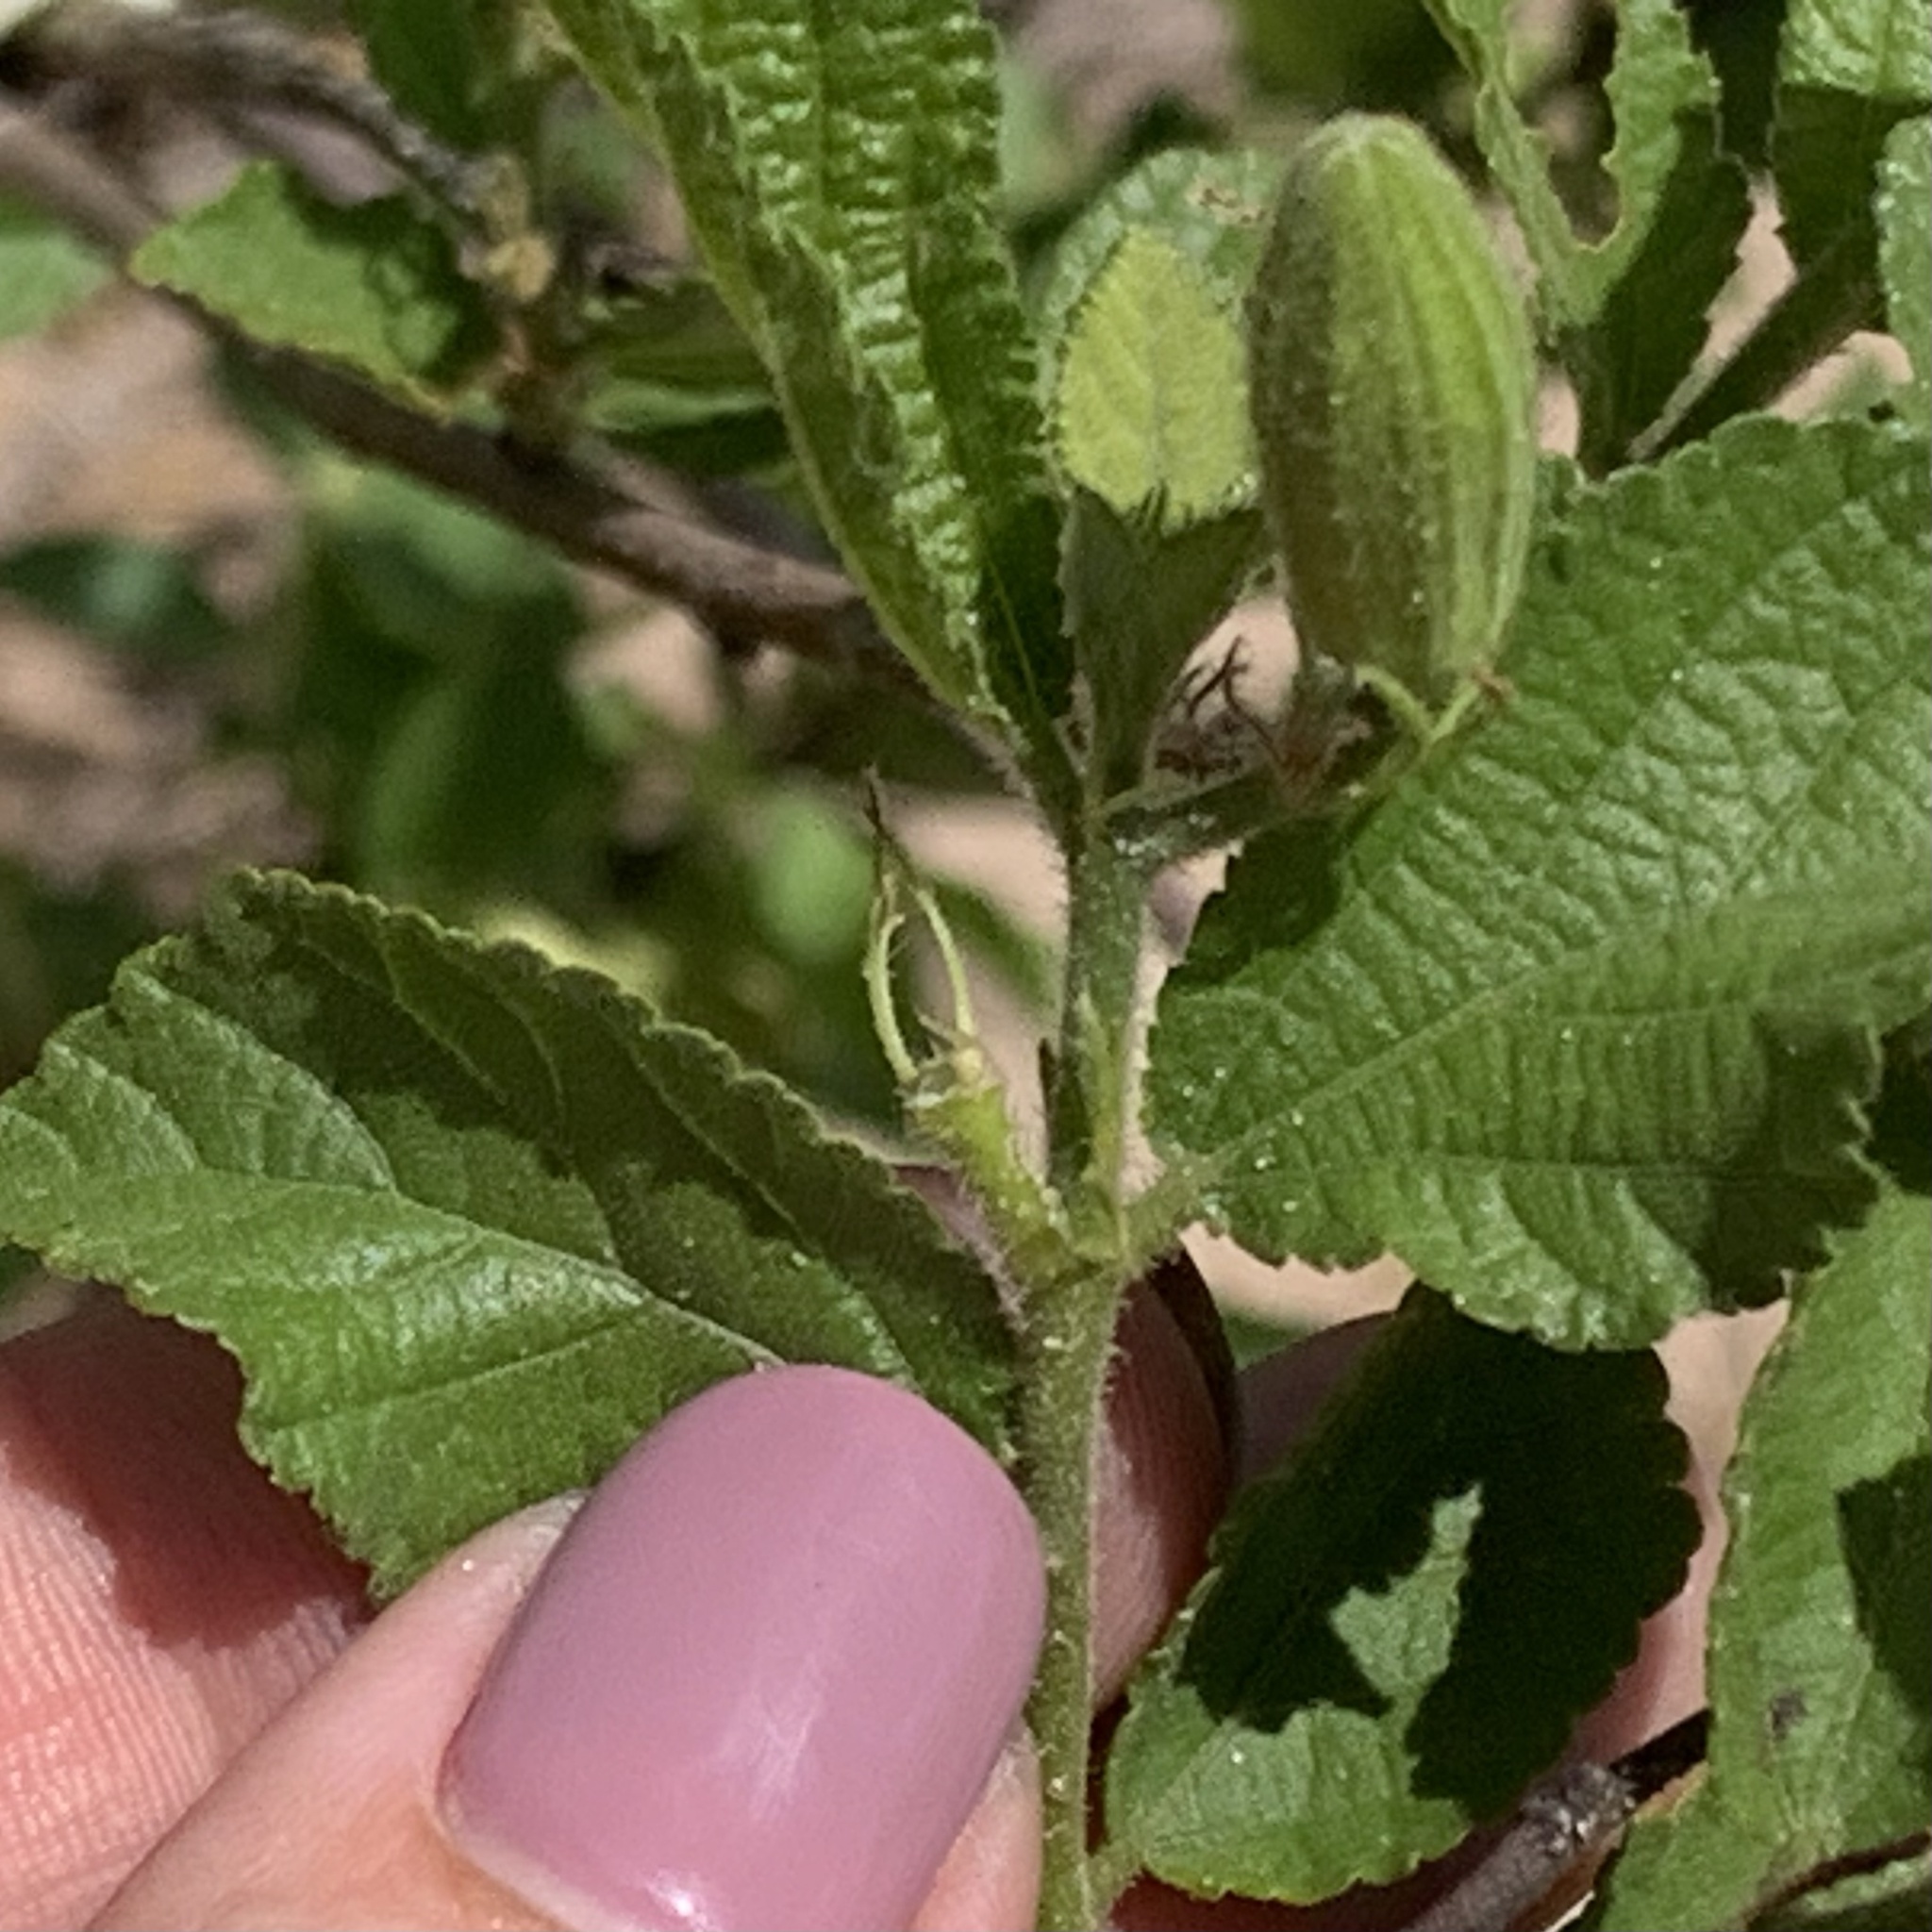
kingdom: Plantae
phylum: Tracheophyta
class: Magnoliopsida
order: Malvales
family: Malvaceae
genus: Grewia
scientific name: Grewia avellana
